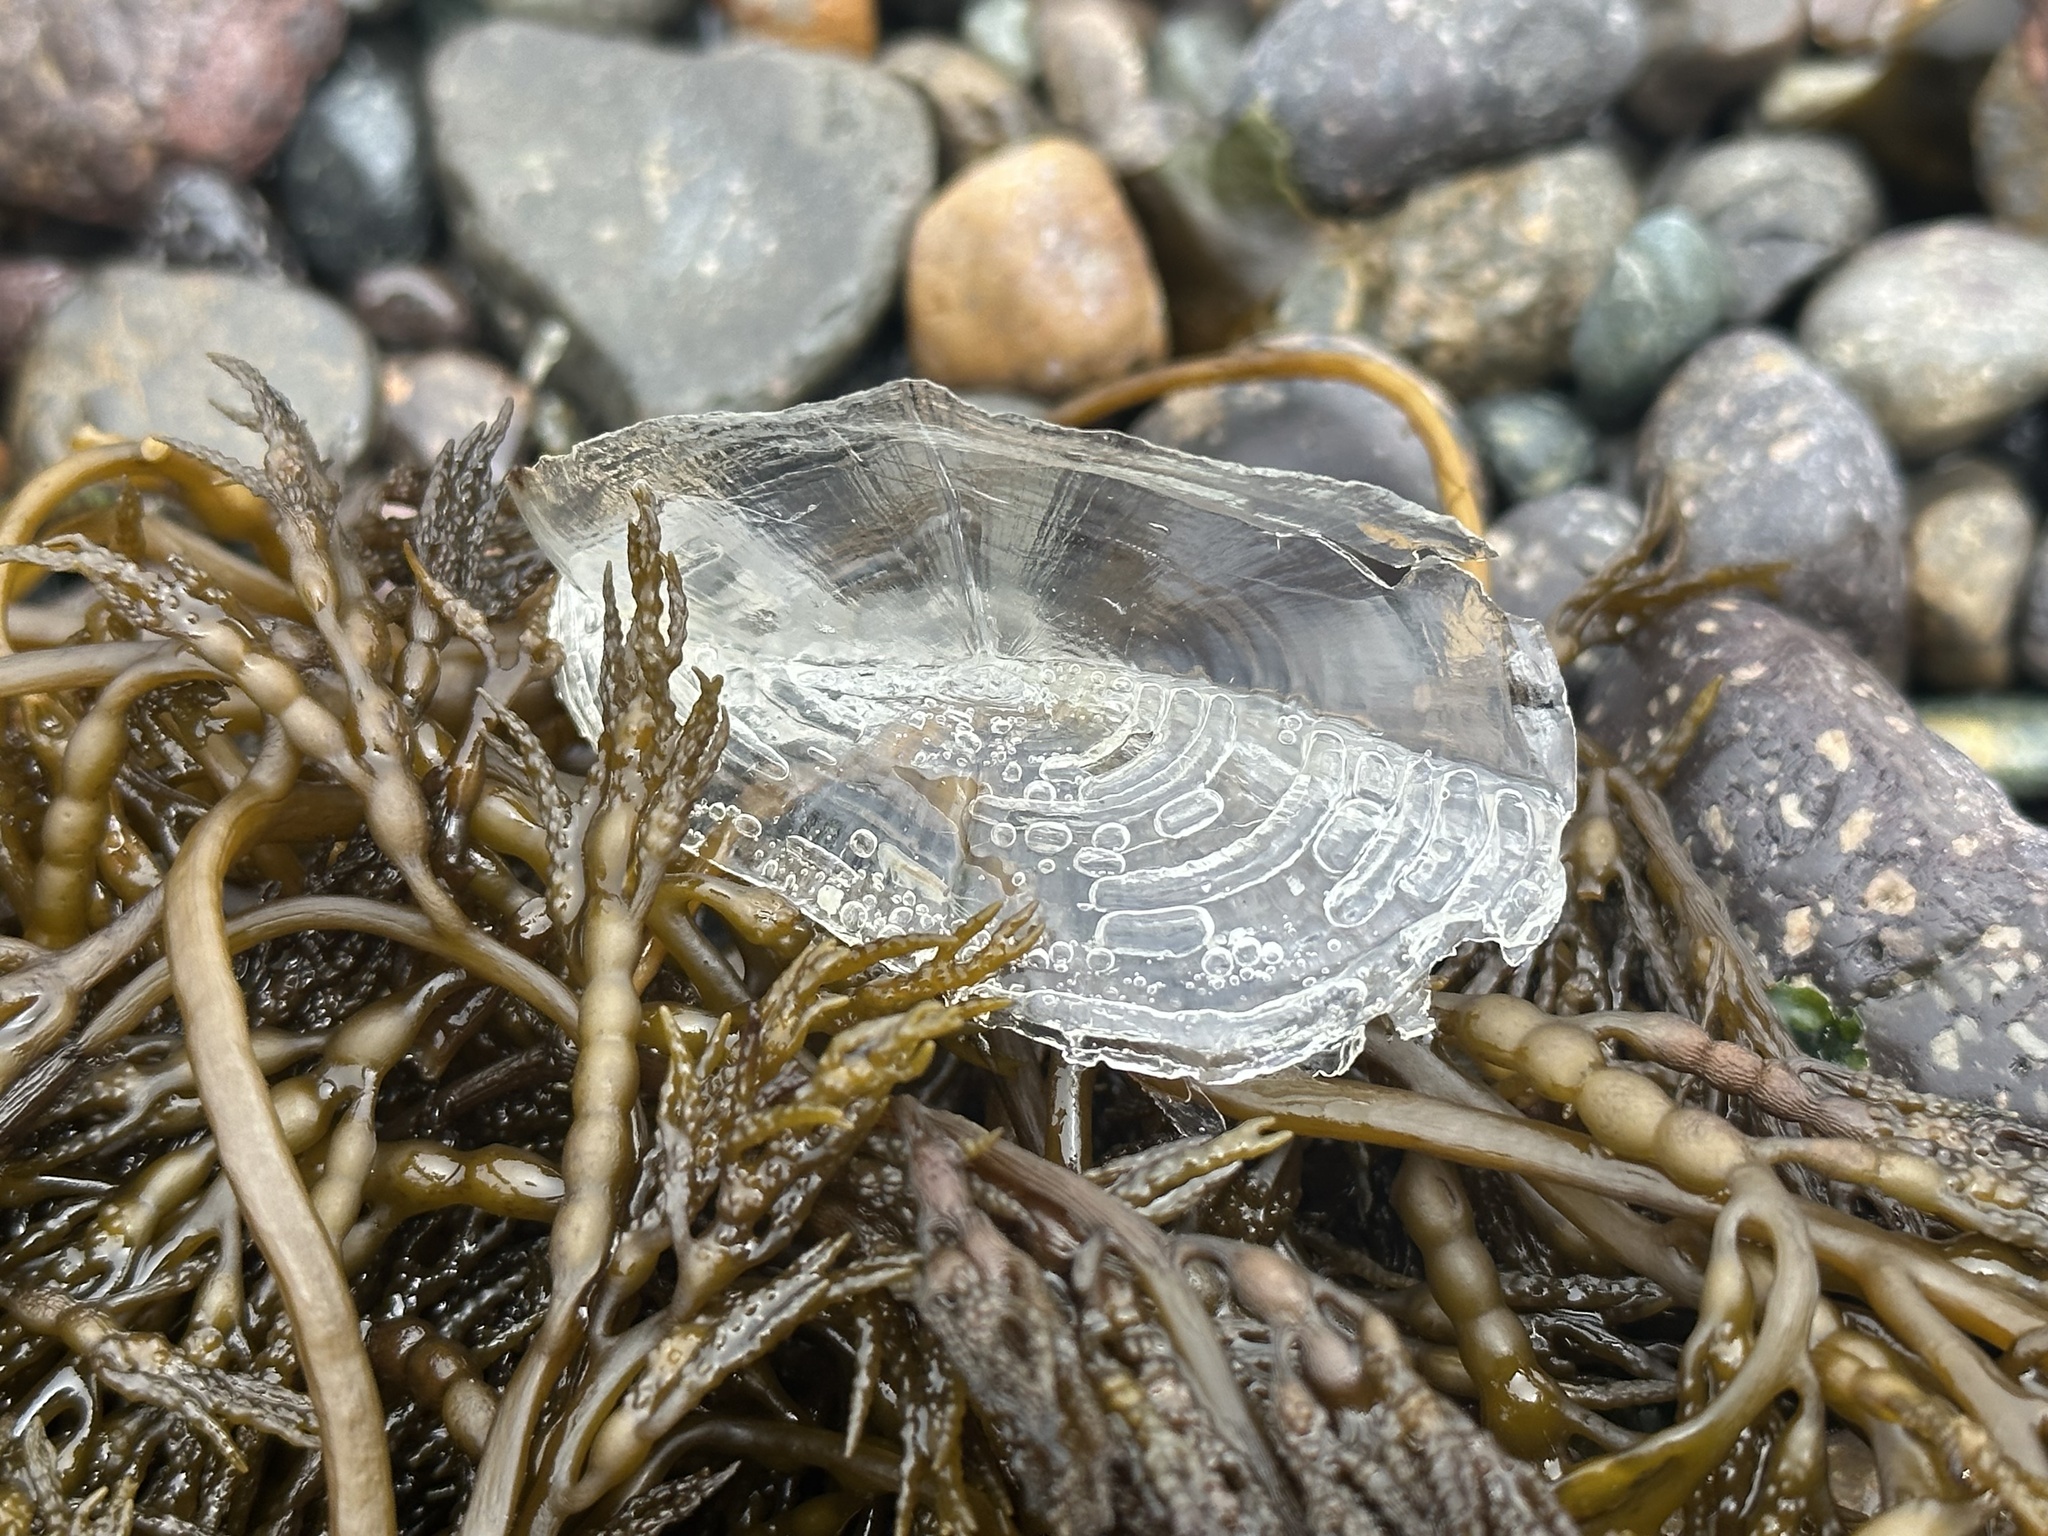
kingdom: Animalia
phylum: Cnidaria
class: Hydrozoa
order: Anthoathecata
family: Porpitidae
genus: Velella
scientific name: Velella velella
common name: By-the-wind-sailor
